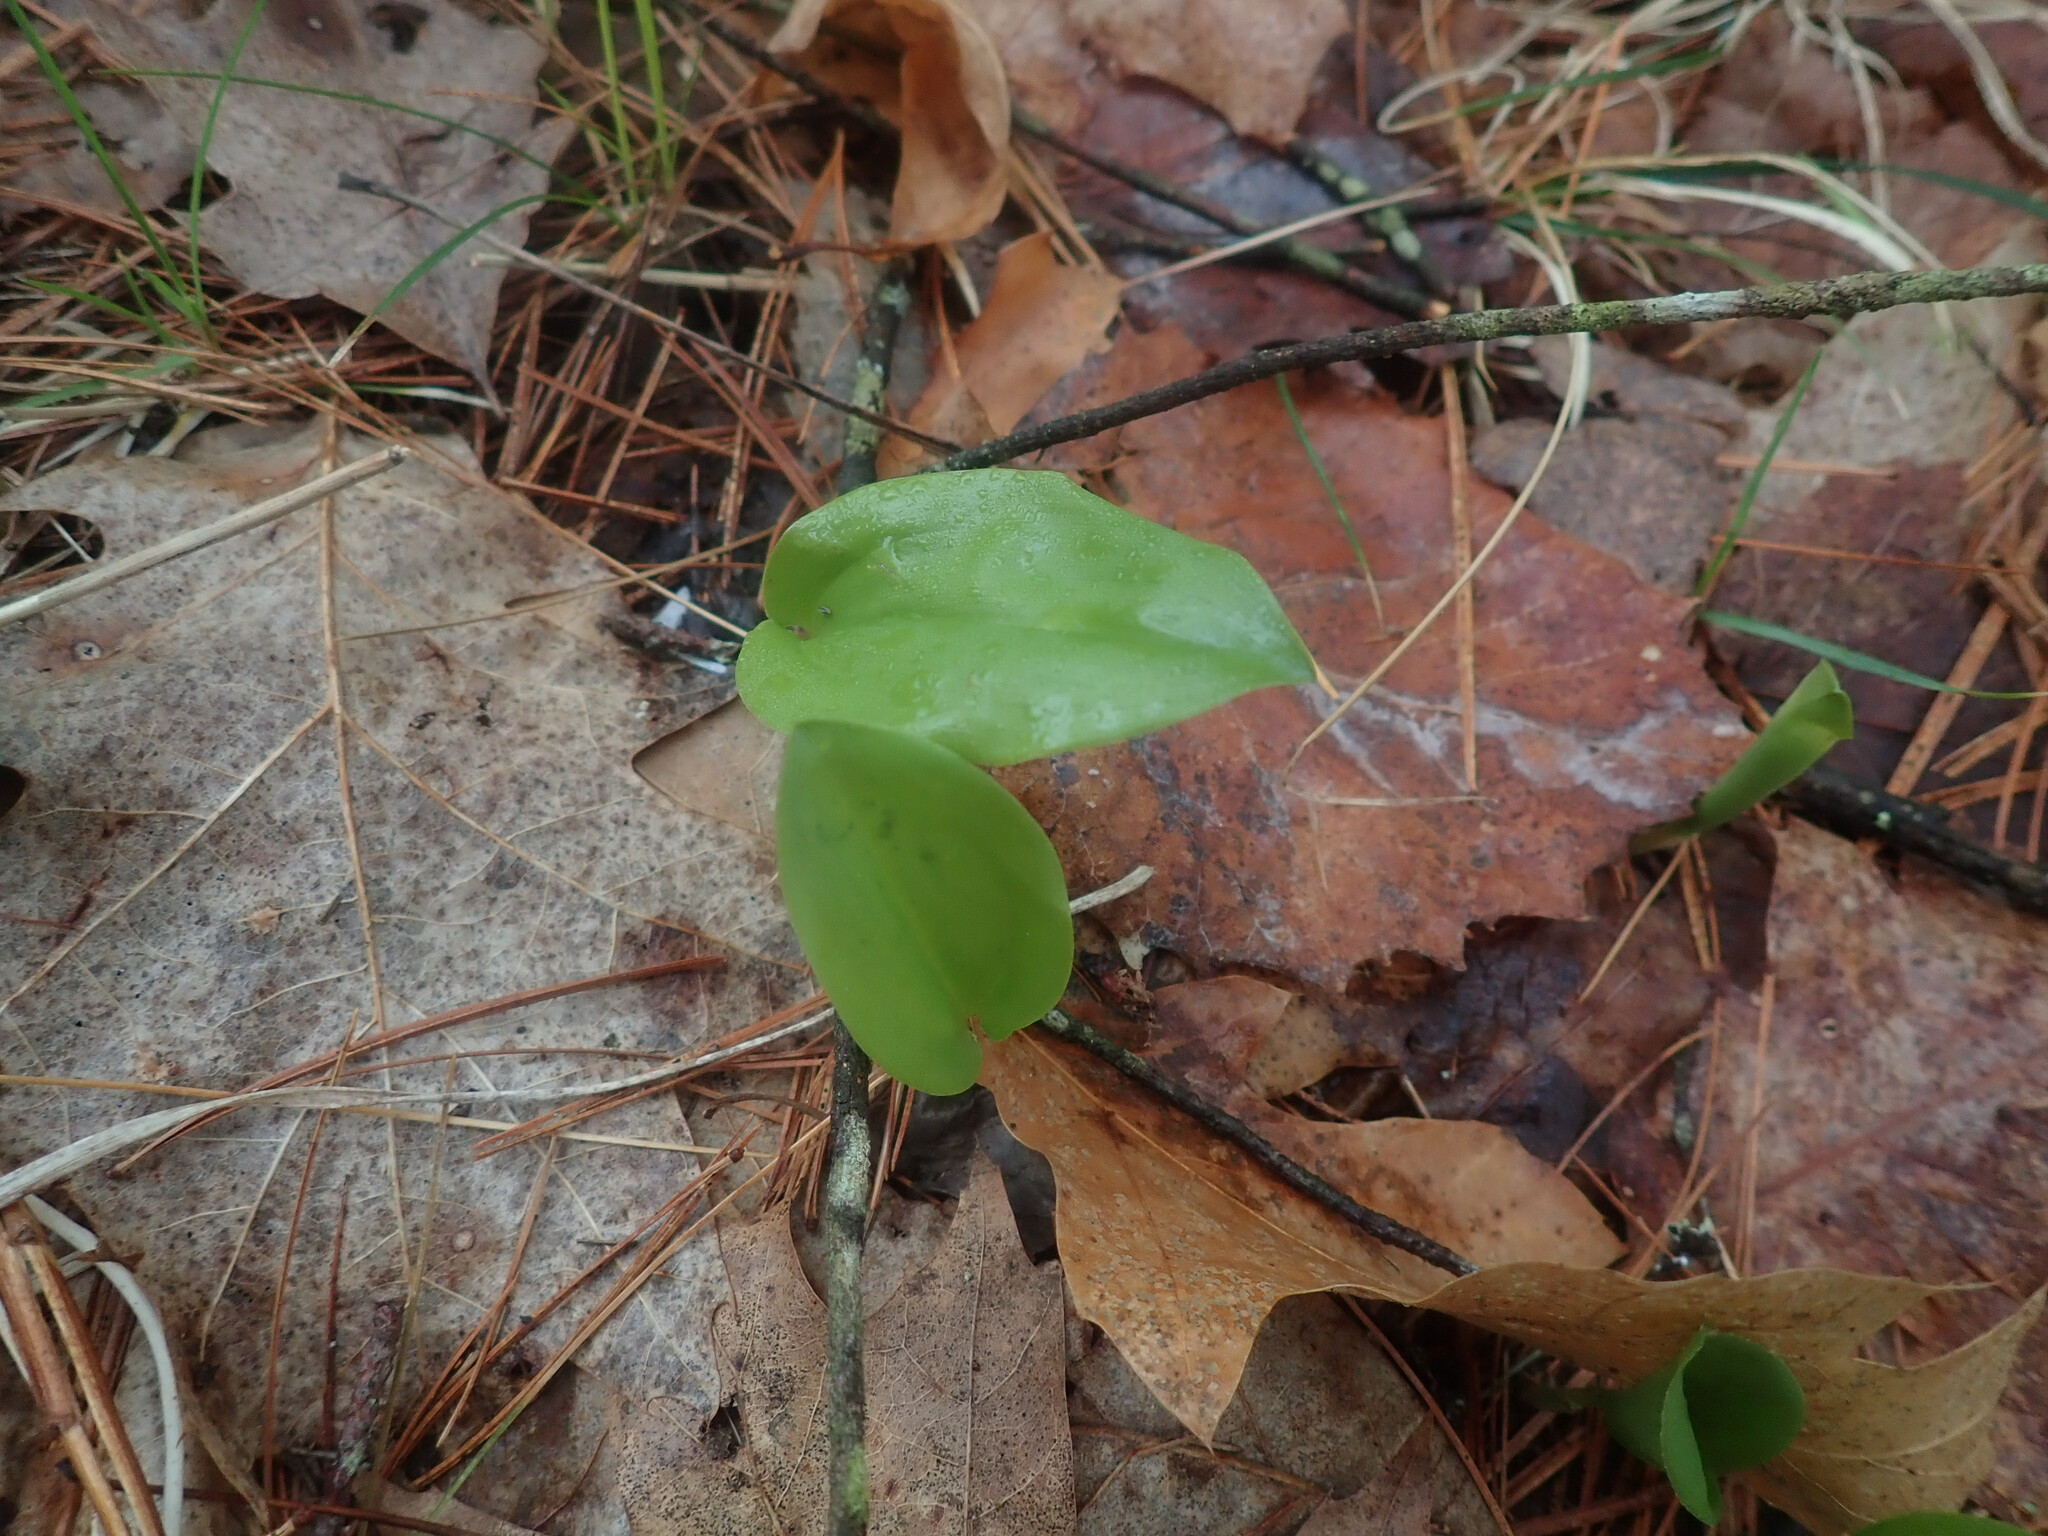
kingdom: Plantae
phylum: Tracheophyta
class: Liliopsida
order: Asparagales
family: Asparagaceae
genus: Maianthemum
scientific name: Maianthemum canadense
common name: False lily-of-the-valley
